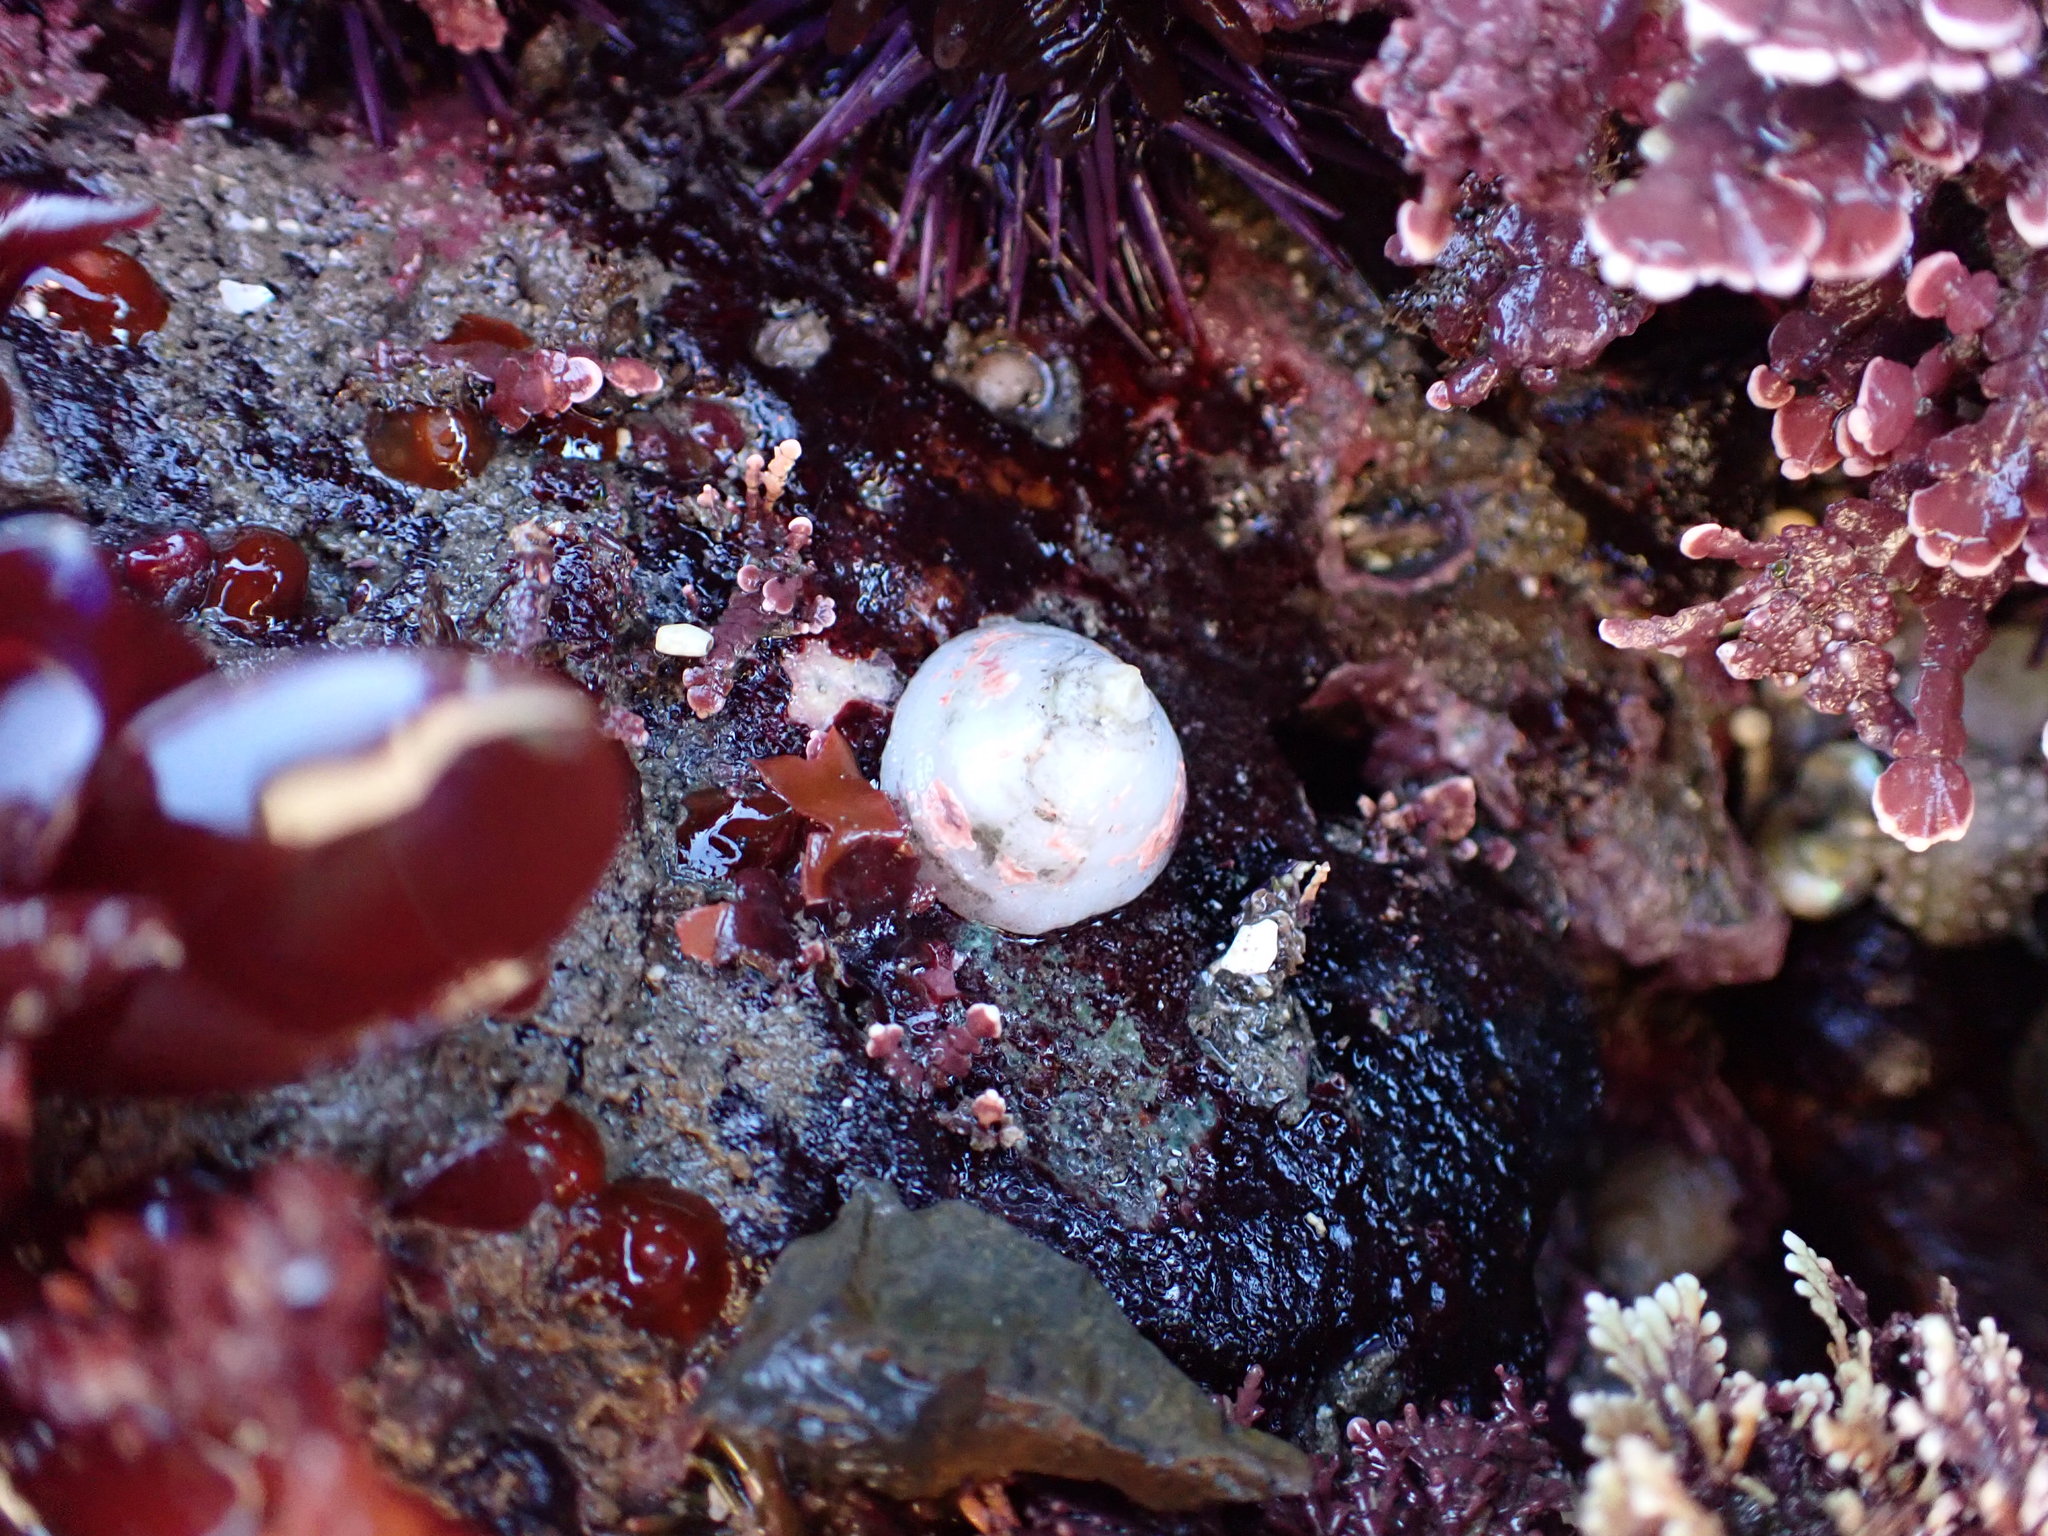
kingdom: Animalia
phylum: Mollusca
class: Gastropoda
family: Acmaeidae
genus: Acmaea
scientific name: Acmaea mitra
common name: Pacific white cap limpet
